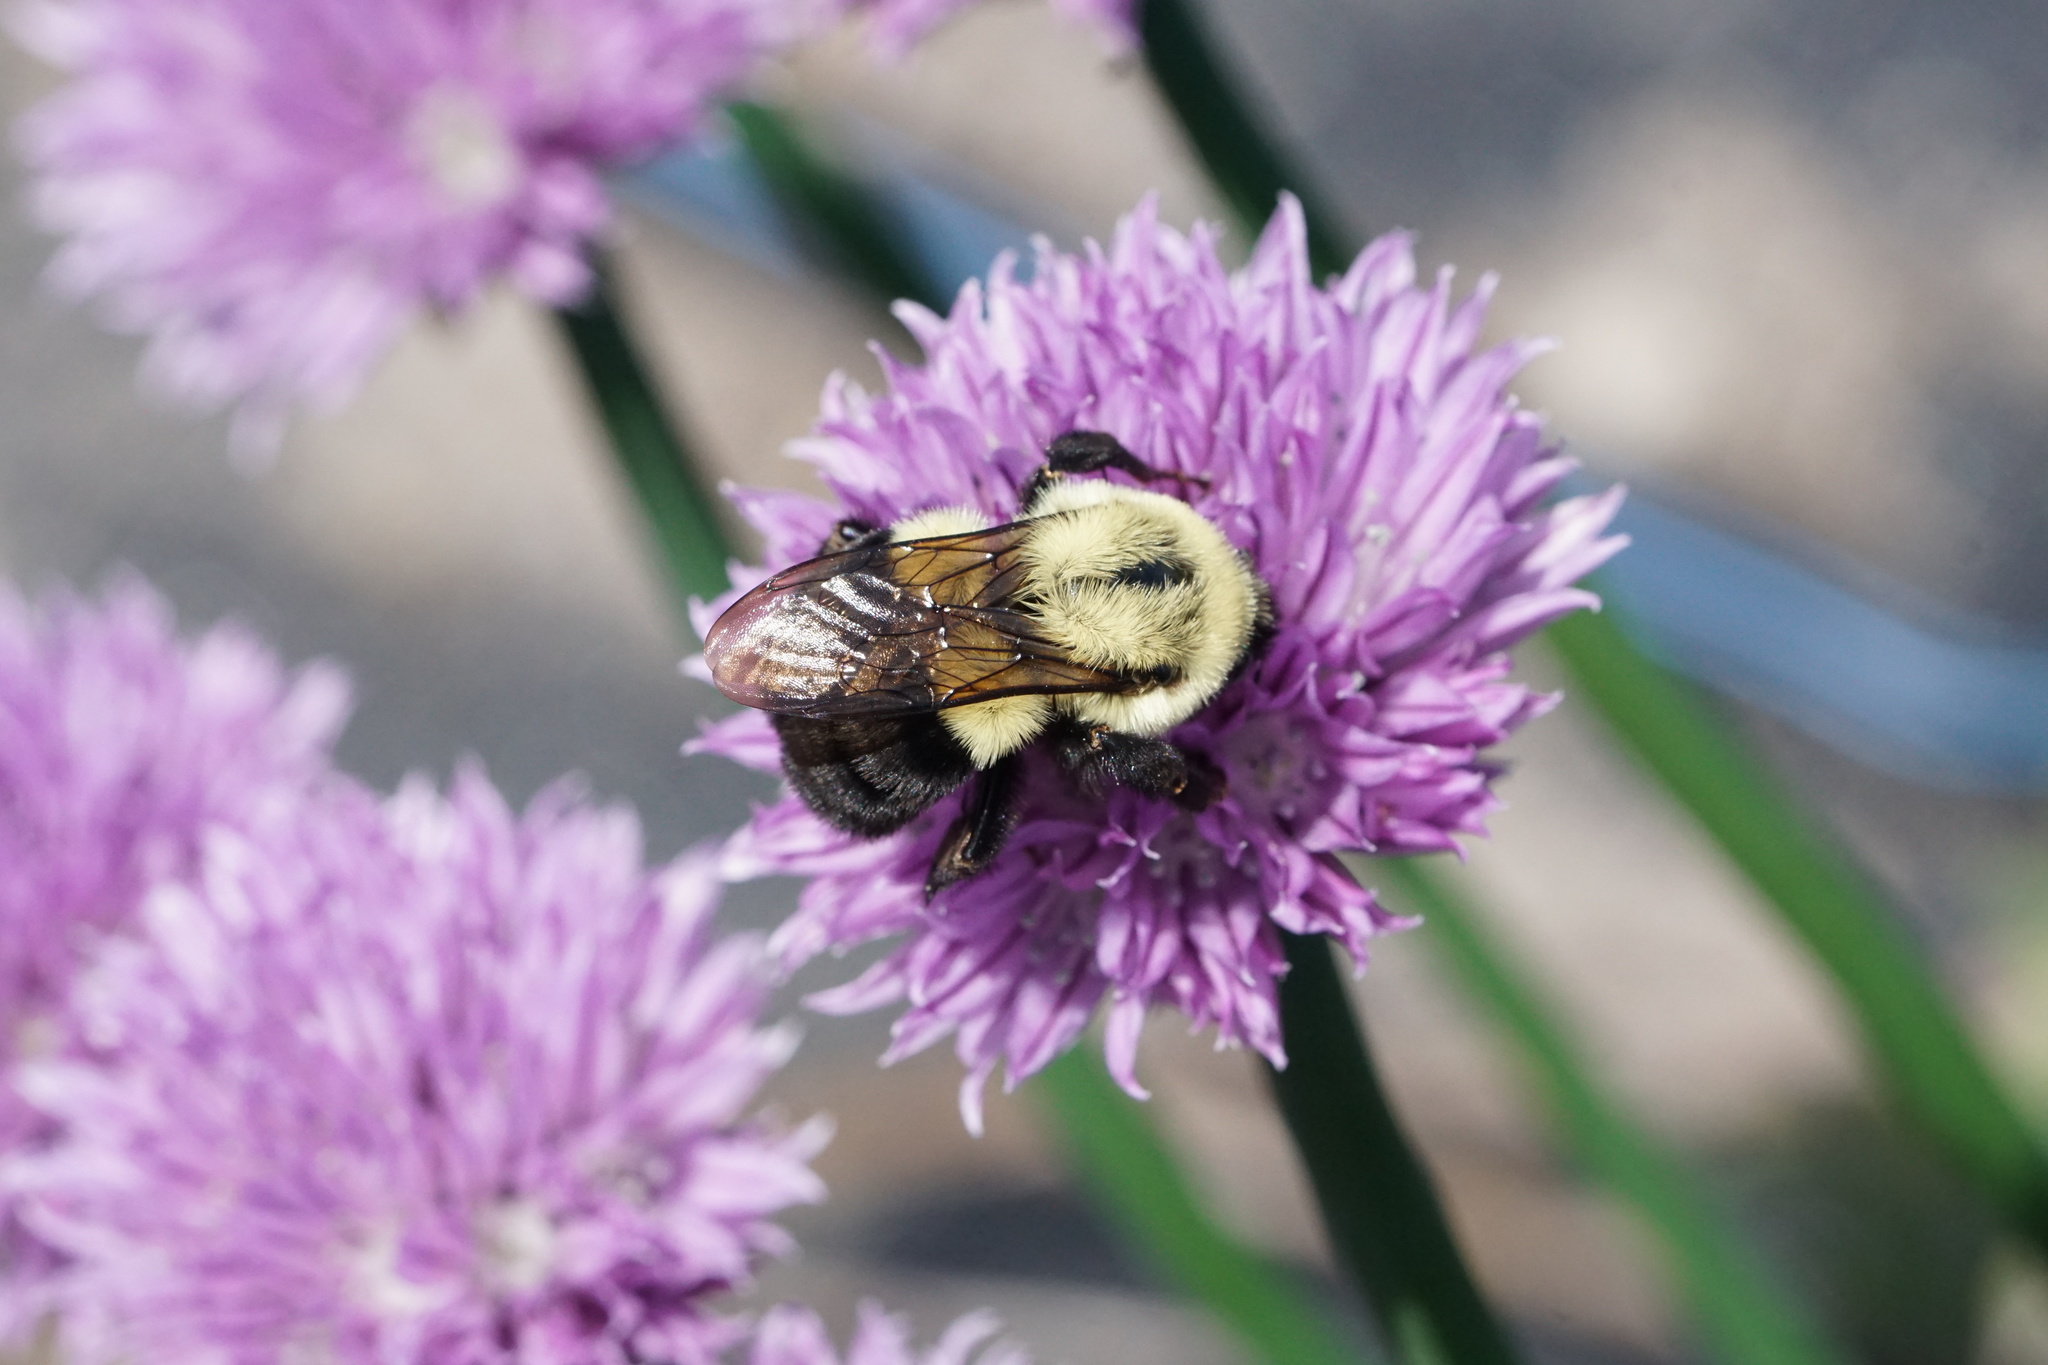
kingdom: Animalia
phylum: Arthropoda
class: Insecta
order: Hymenoptera
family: Apidae
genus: Bombus
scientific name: Bombus impatiens
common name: Common eastern bumble bee
